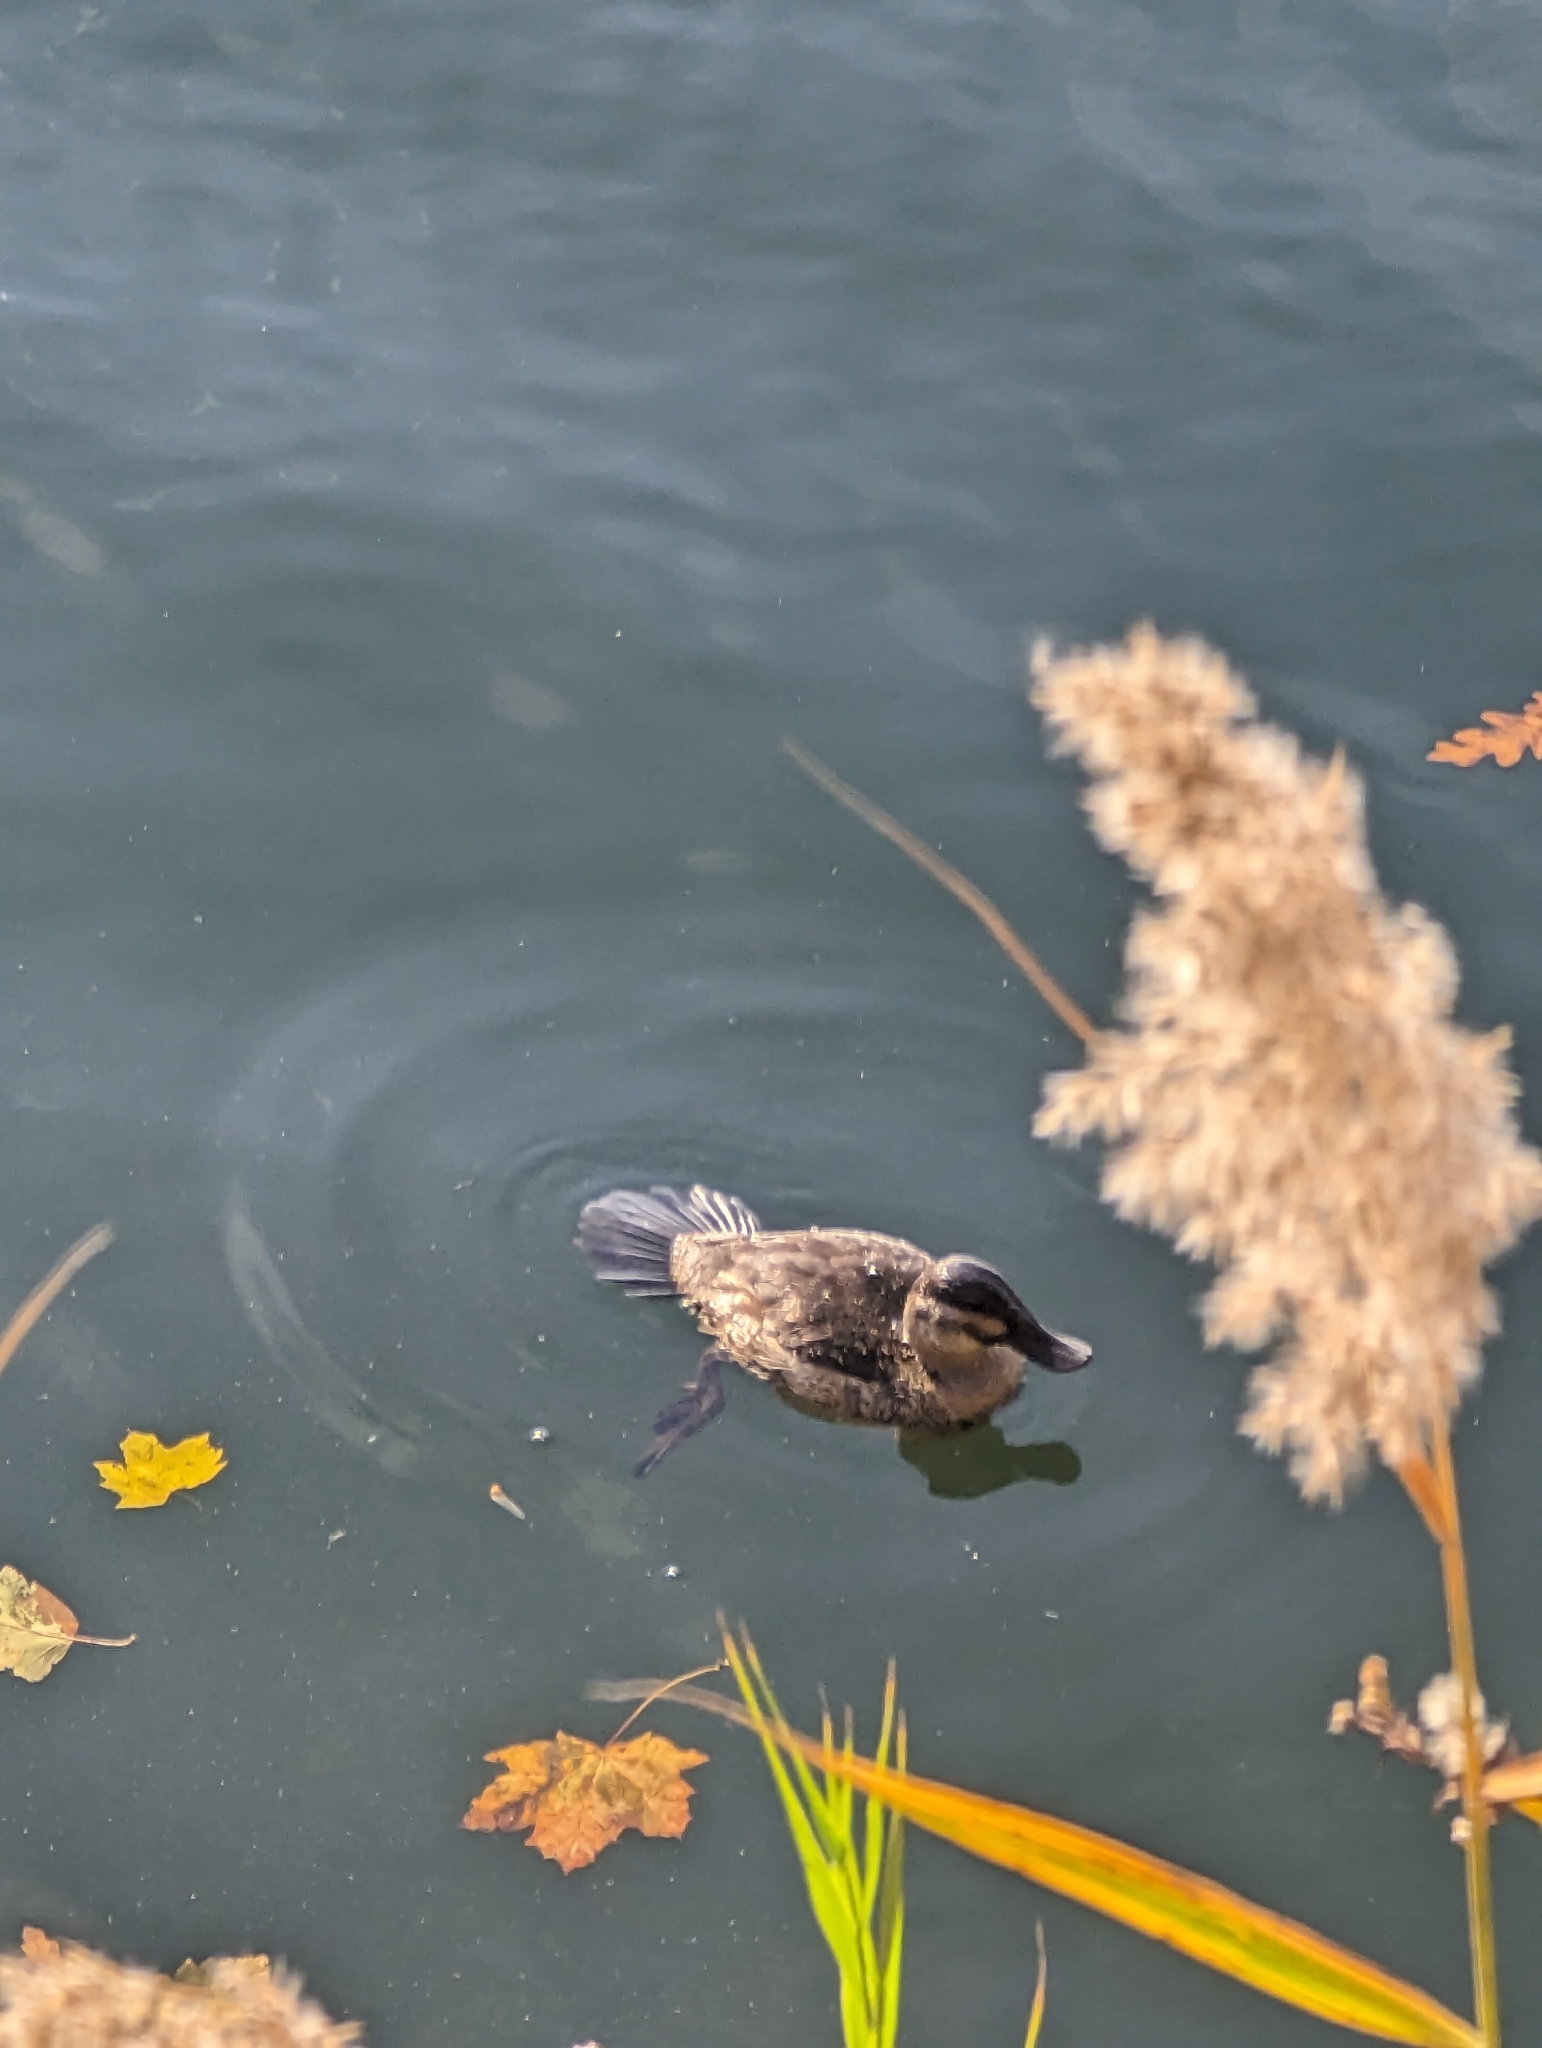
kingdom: Animalia
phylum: Chordata
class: Aves
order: Anseriformes
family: Anatidae
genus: Oxyura
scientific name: Oxyura jamaicensis
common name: Ruddy duck
